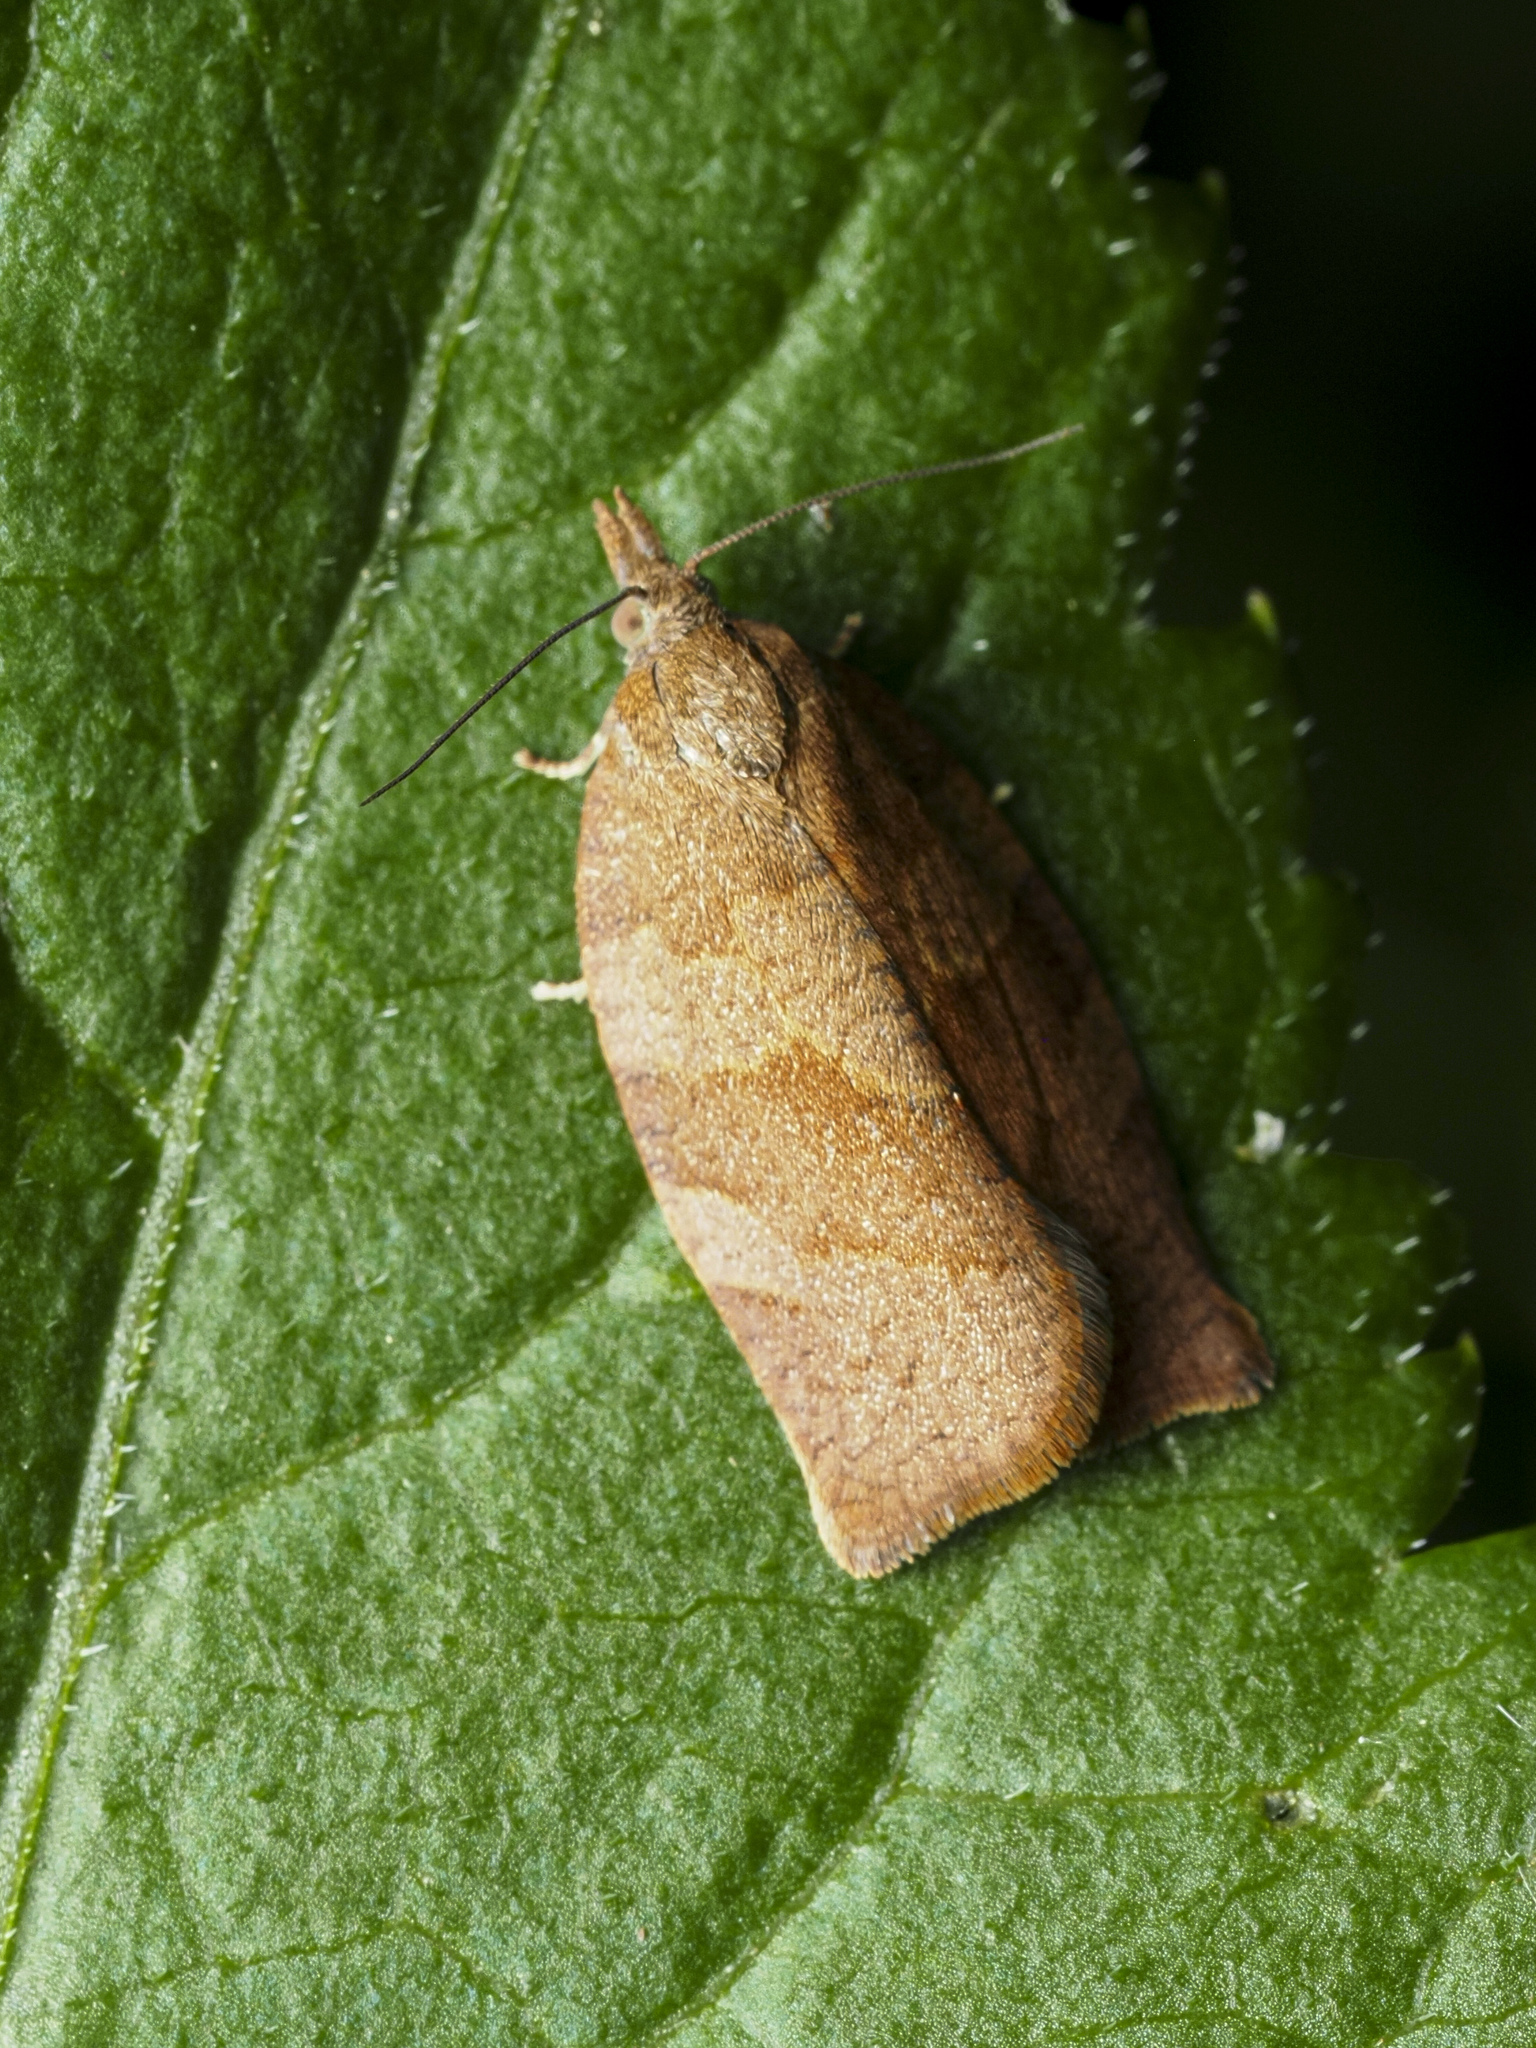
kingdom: Animalia
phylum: Arthropoda
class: Insecta
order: Lepidoptera
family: Tortricidae
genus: Pandemis
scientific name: Pandemis heparana
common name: Dark fruit-tree tortrix
